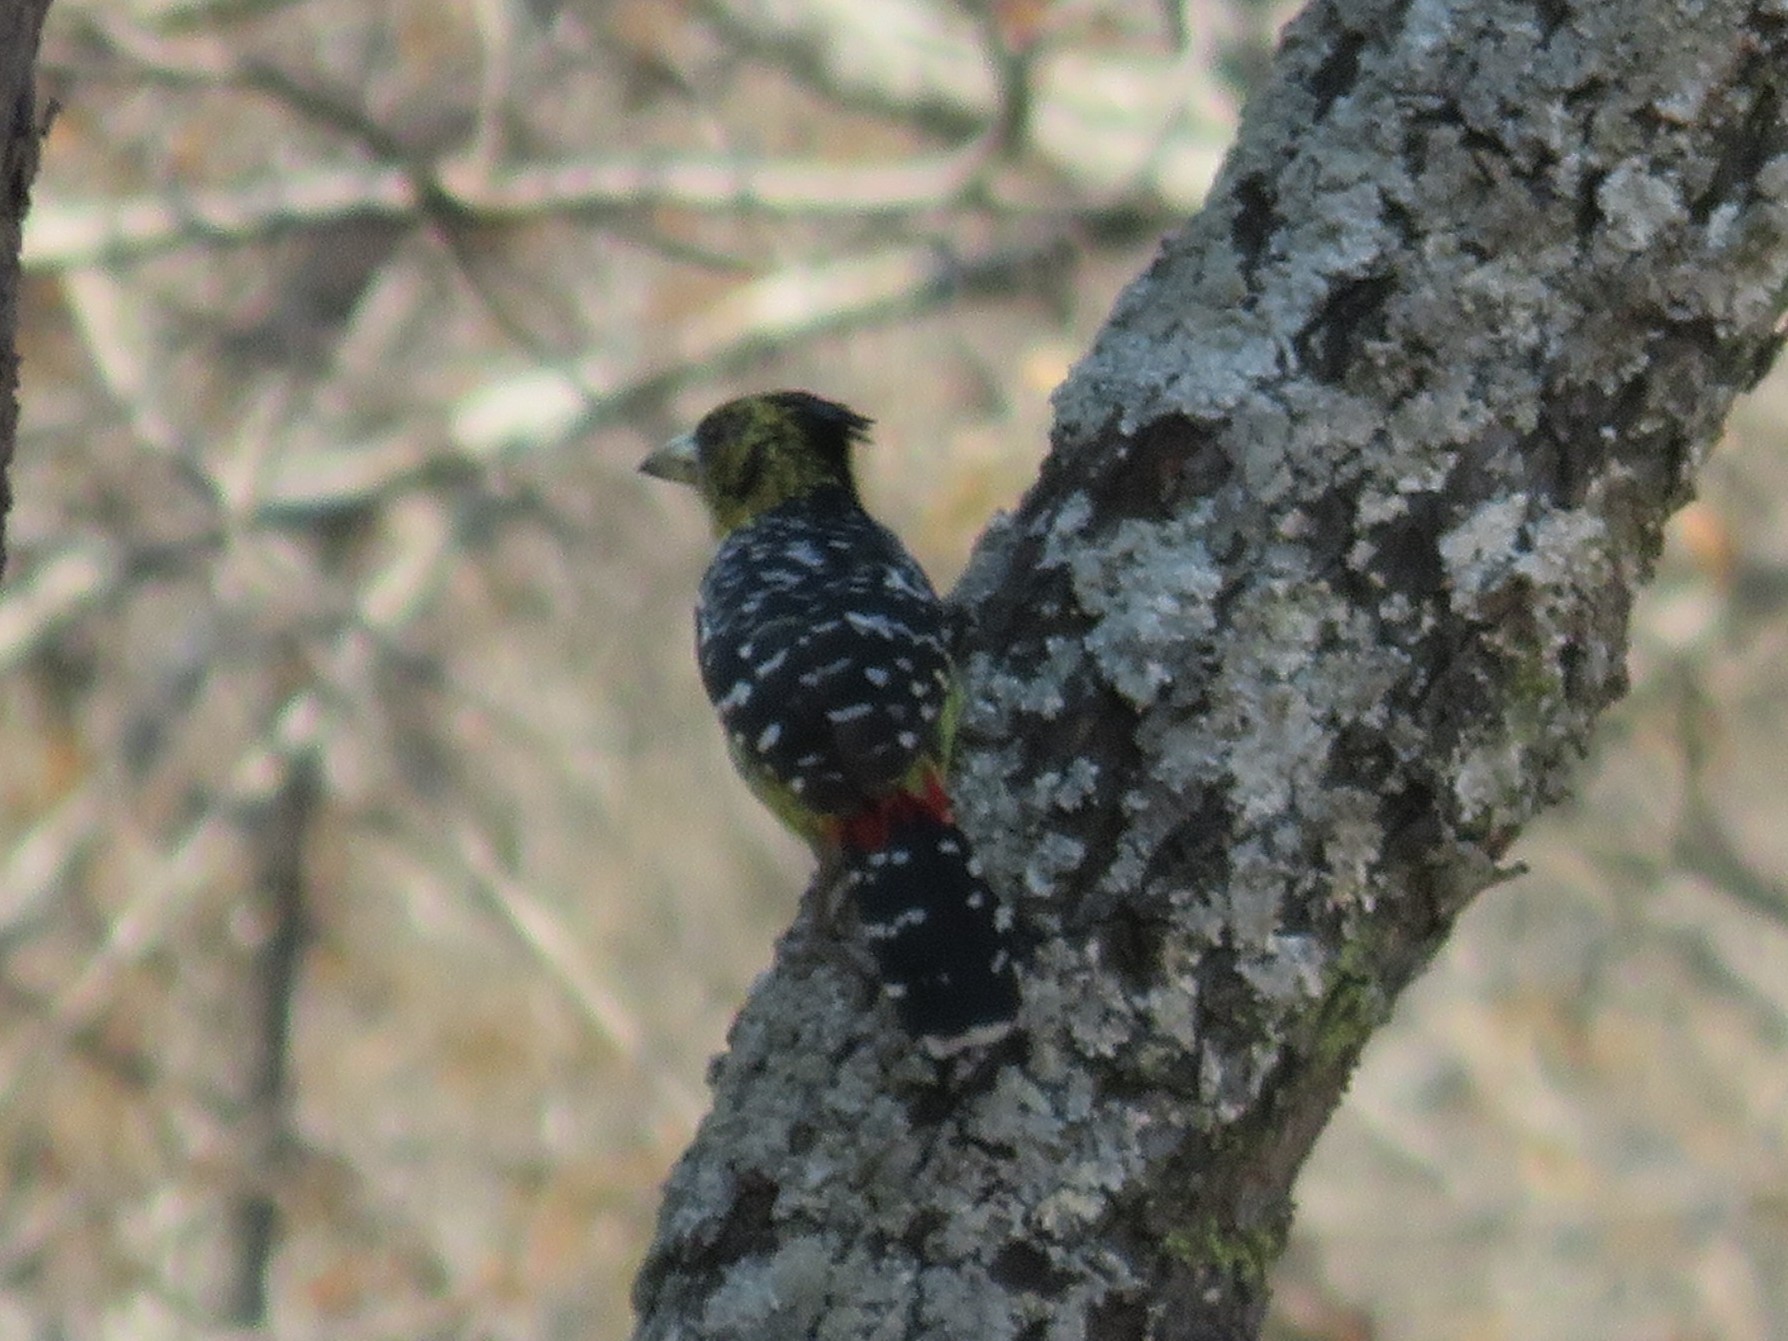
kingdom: Animalia
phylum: Chordata
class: Aves
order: Piciformes
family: Lybiidae
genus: Trachyphonus
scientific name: Trachyphonus vaillantii
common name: Crested barbet
